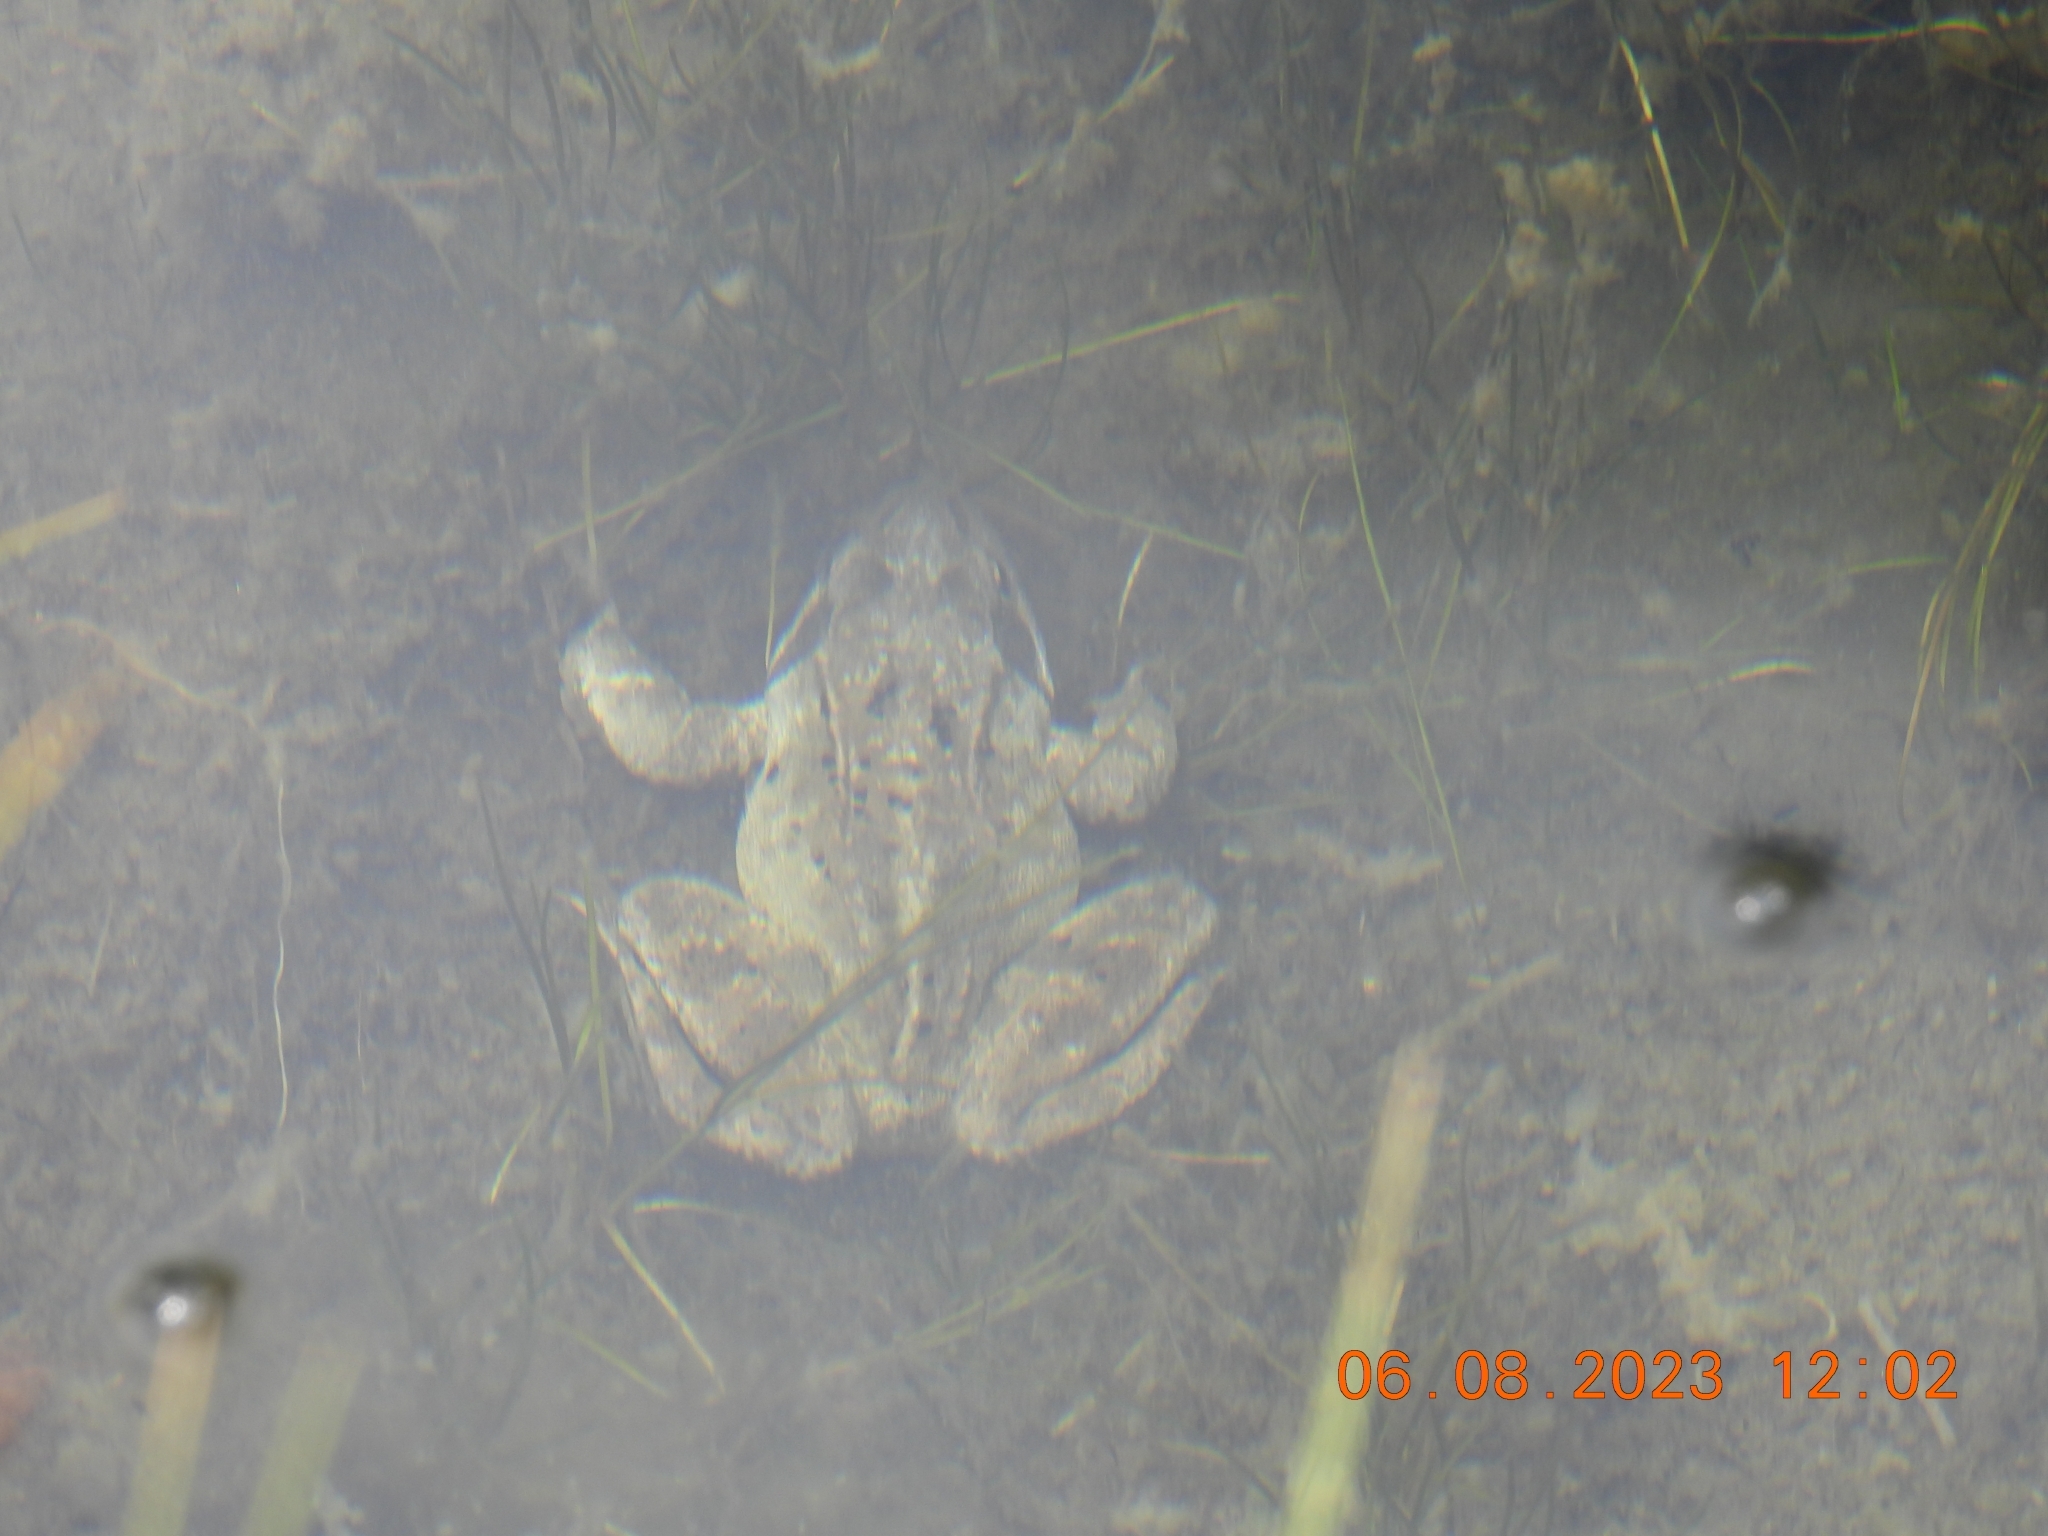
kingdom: Animalia
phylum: Chordata
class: Amphibia
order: Anura
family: Ranidae
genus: Rana
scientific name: Rana temporaria
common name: Common frog
